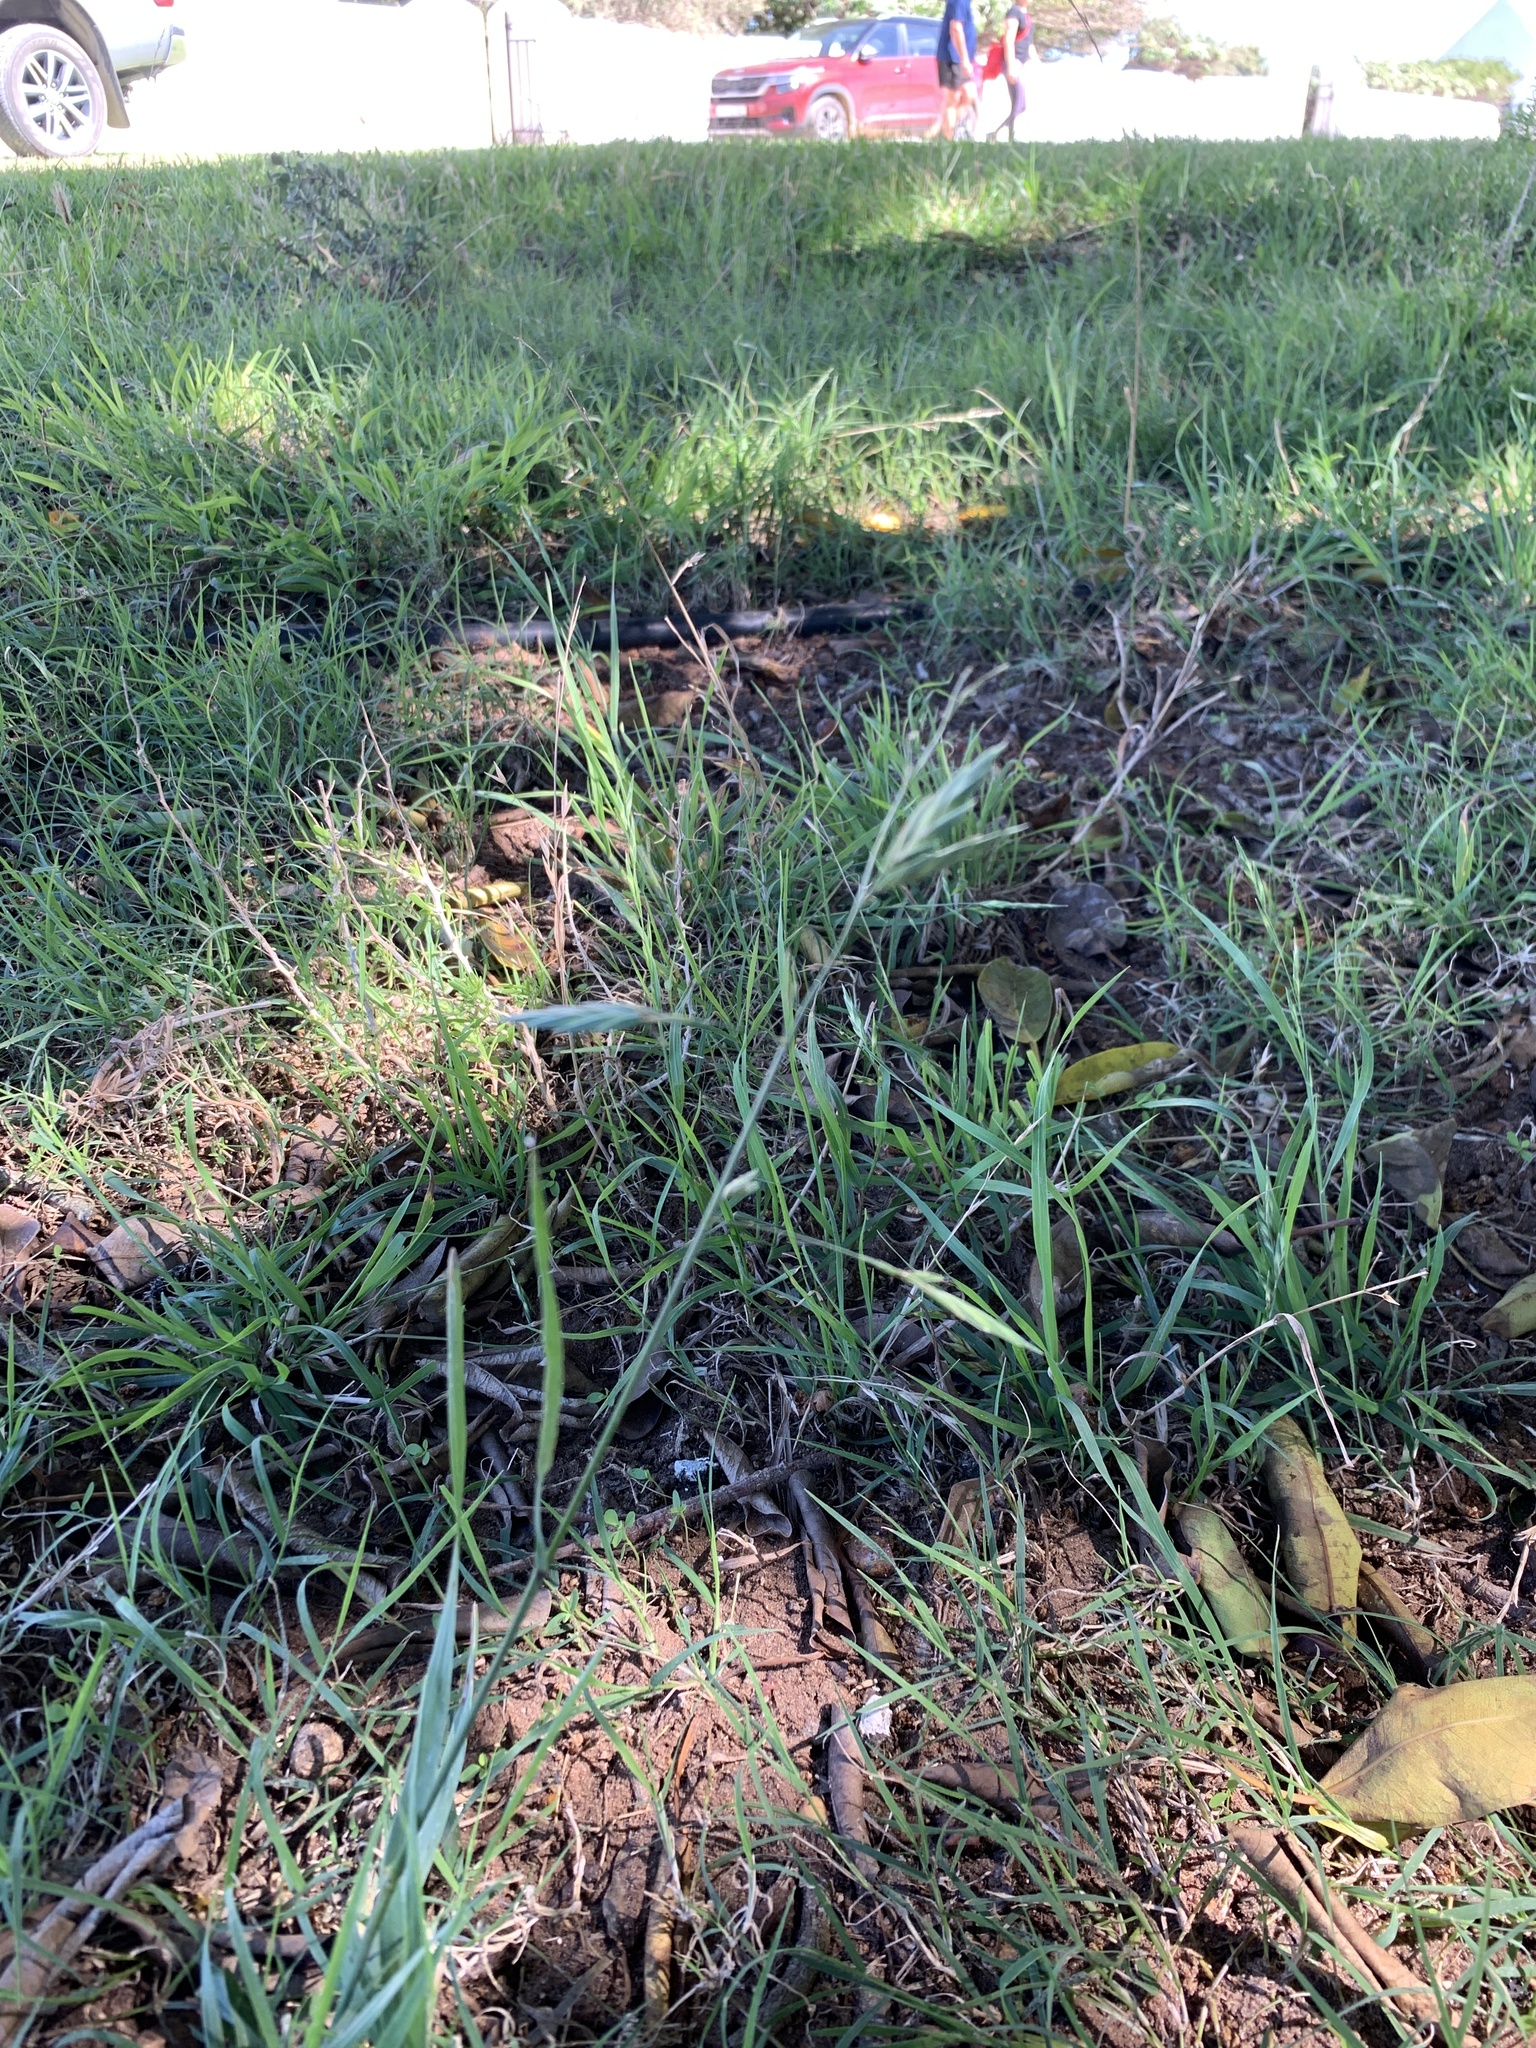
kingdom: Plantae
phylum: Tracheophyta
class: Liliopsida
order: Poales
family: Poaceae
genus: Bromus
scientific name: Bromus catharticus
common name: Rescuegrass
